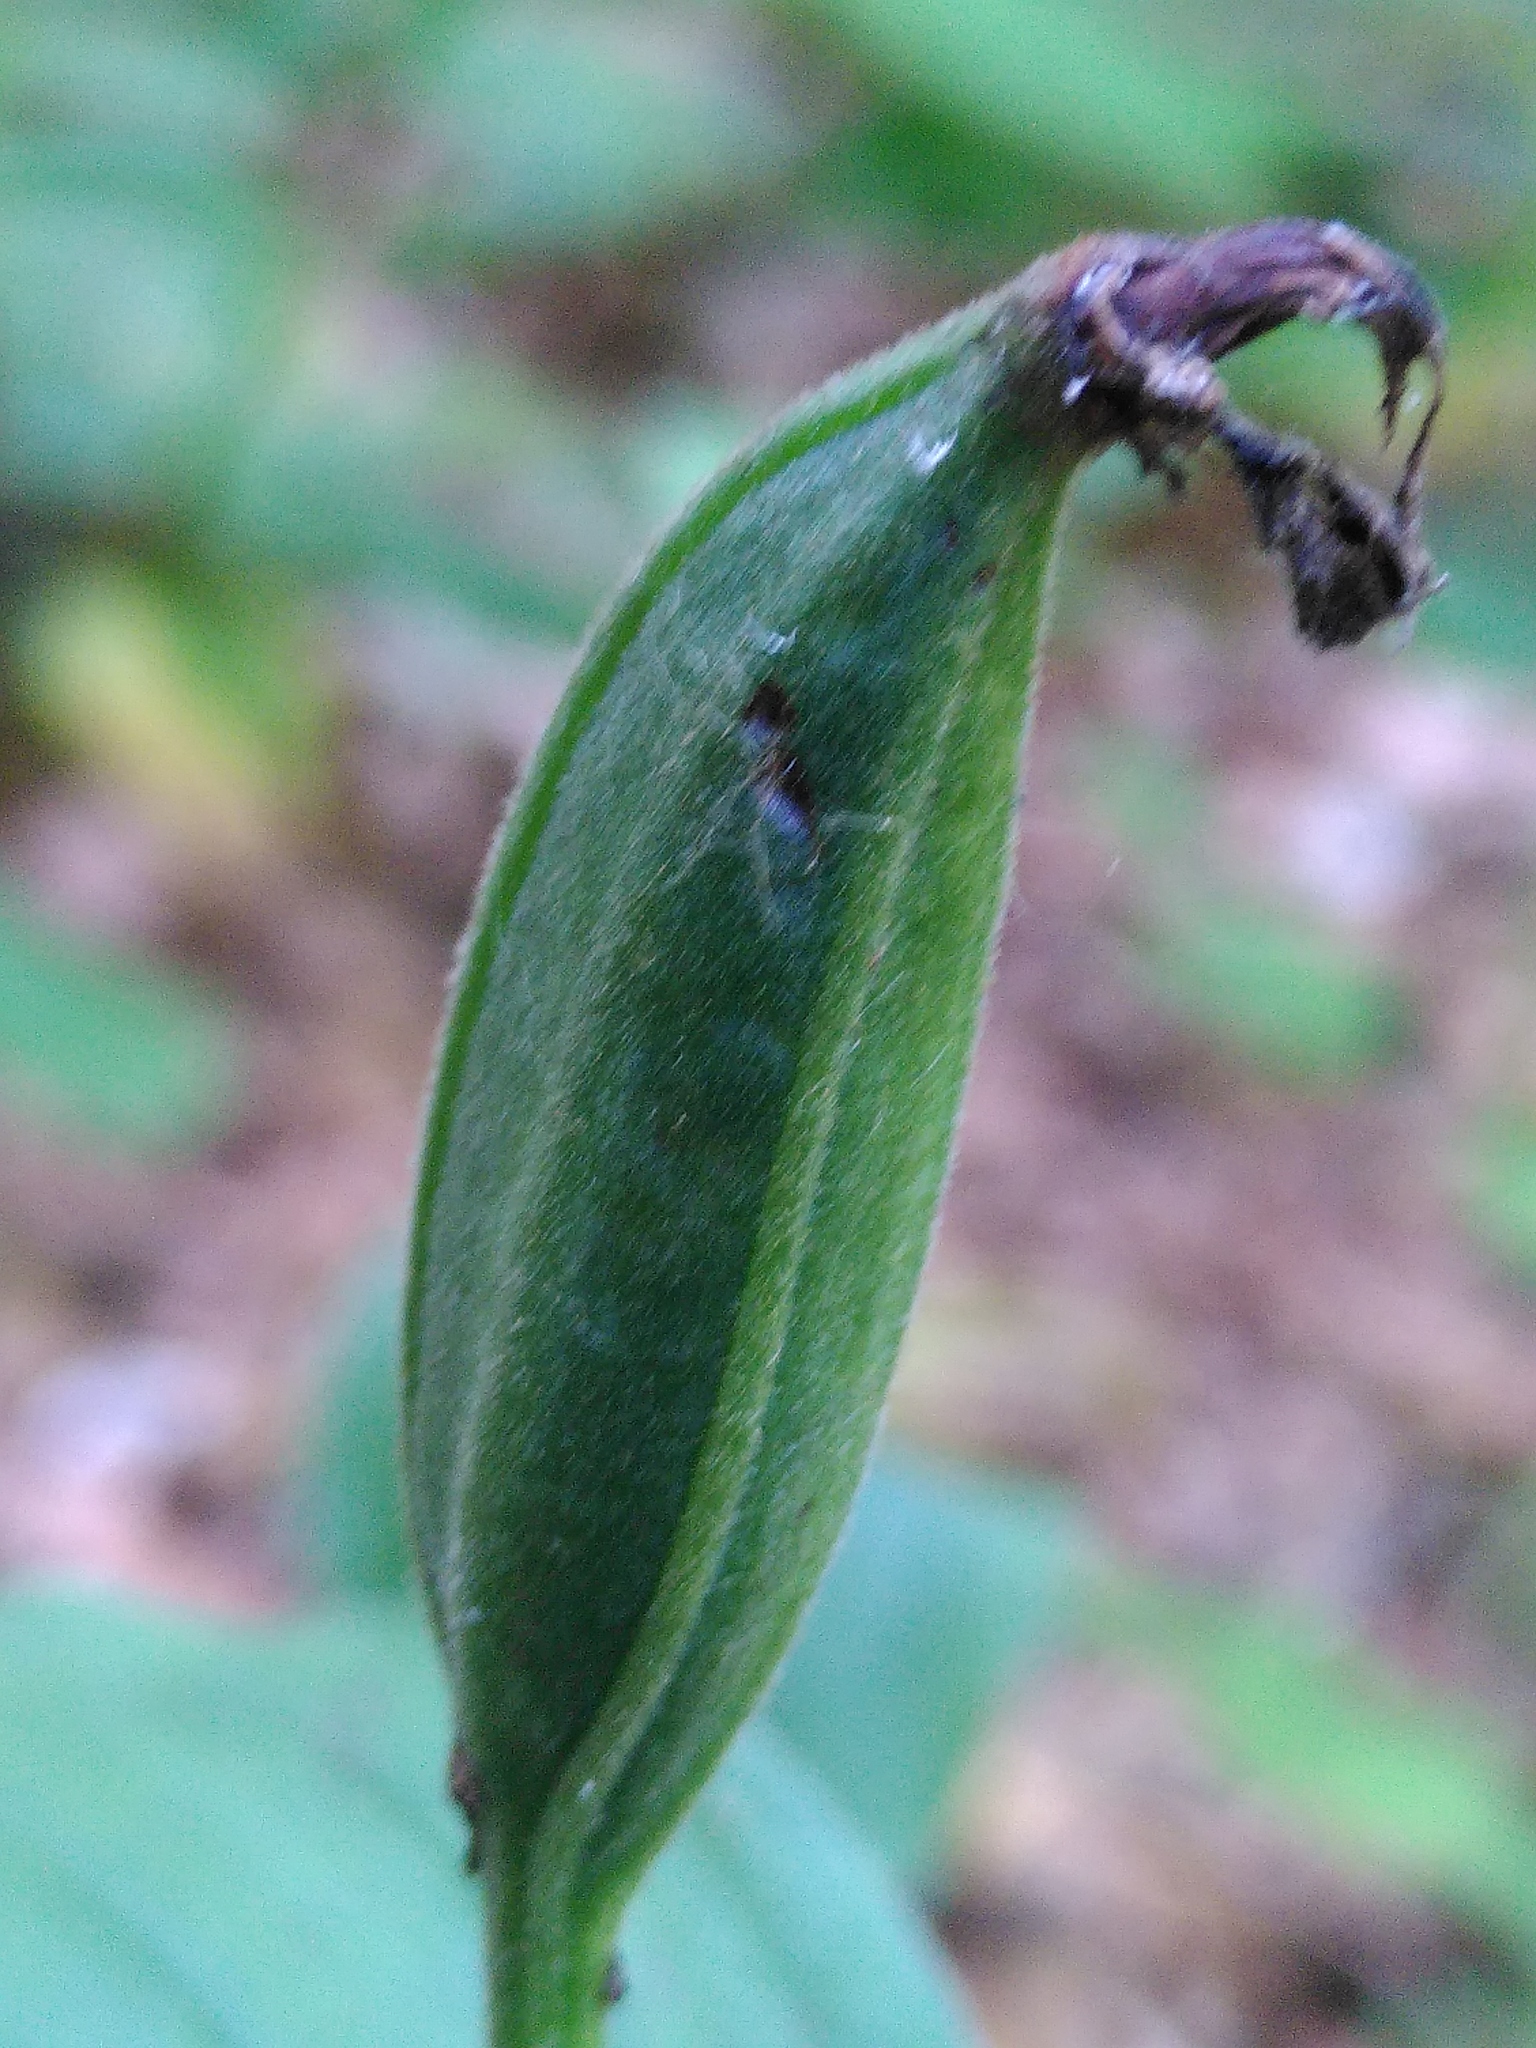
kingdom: Plantae
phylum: Tracheophyta
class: Liliopsida
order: Asparagales
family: Orchidaceae
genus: Cypripedium
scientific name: Cypripedium calceolus
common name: Lady's-slipper
